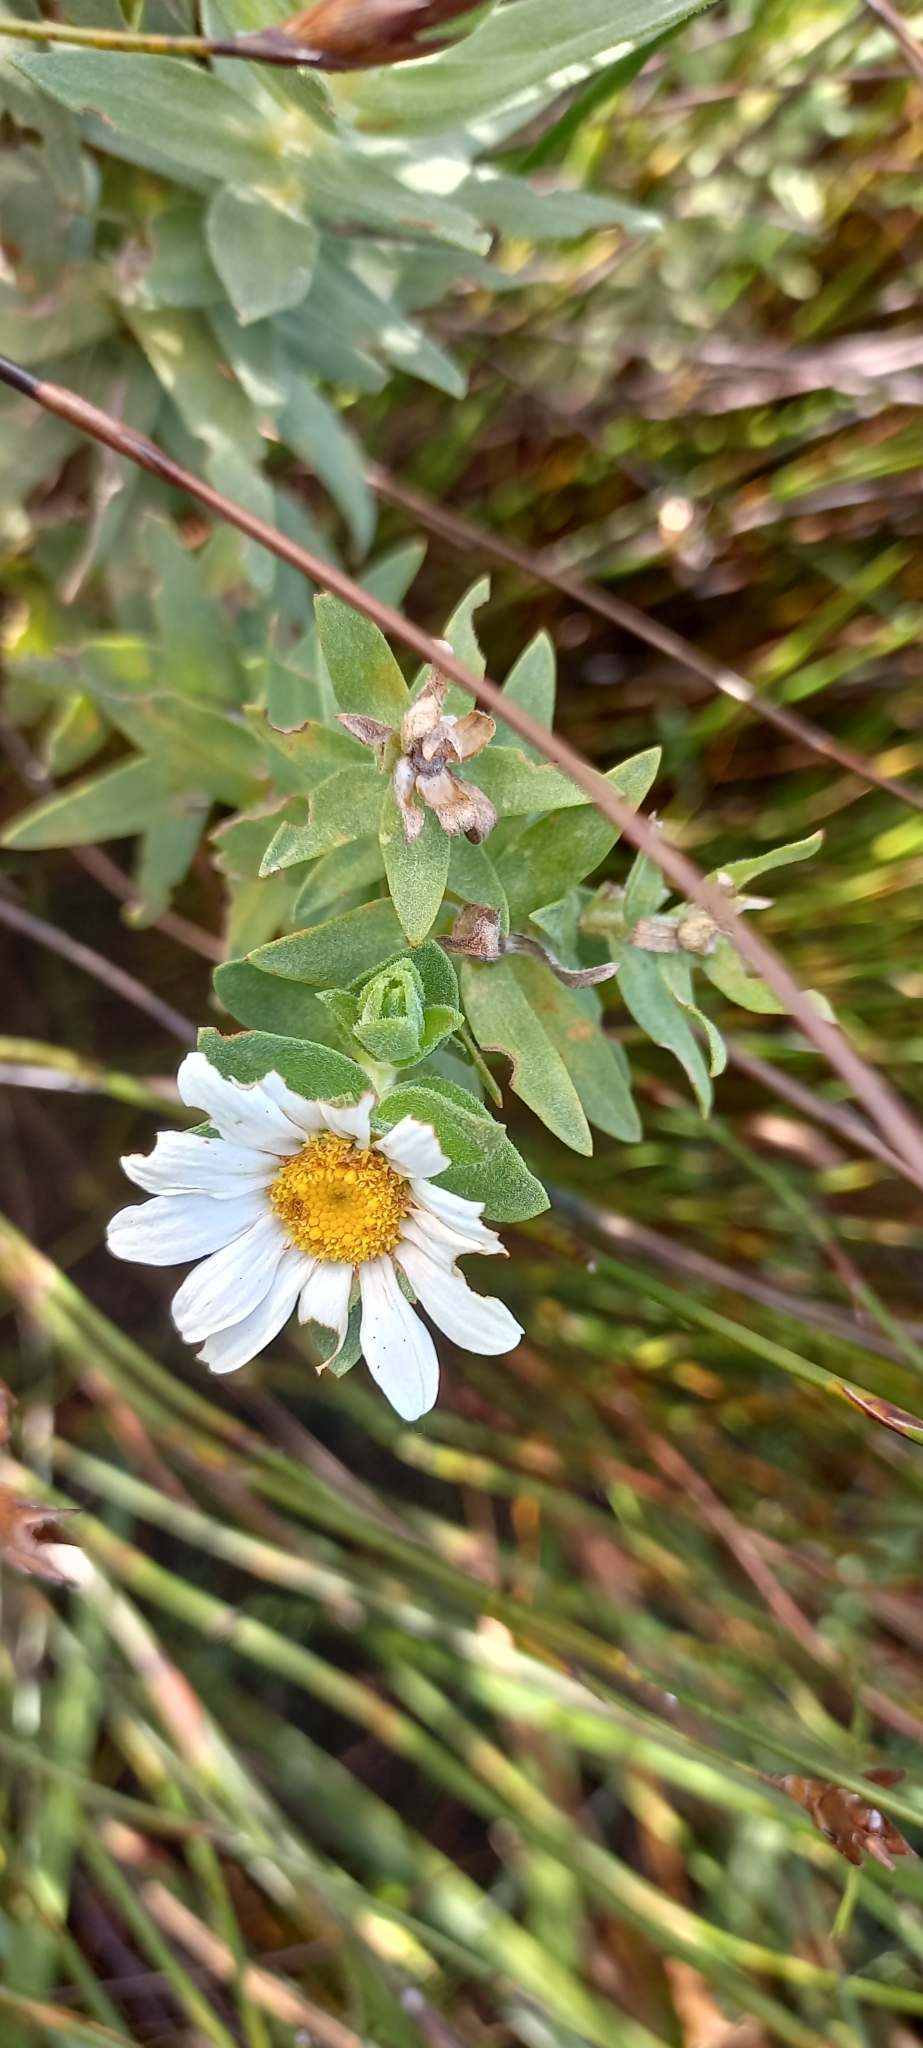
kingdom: Plantae
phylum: Tracheophyta
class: Magnoliopsida
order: Asterales
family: Asteraceae
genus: Osmitopsis
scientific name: Osmitopsis asteriscoides
